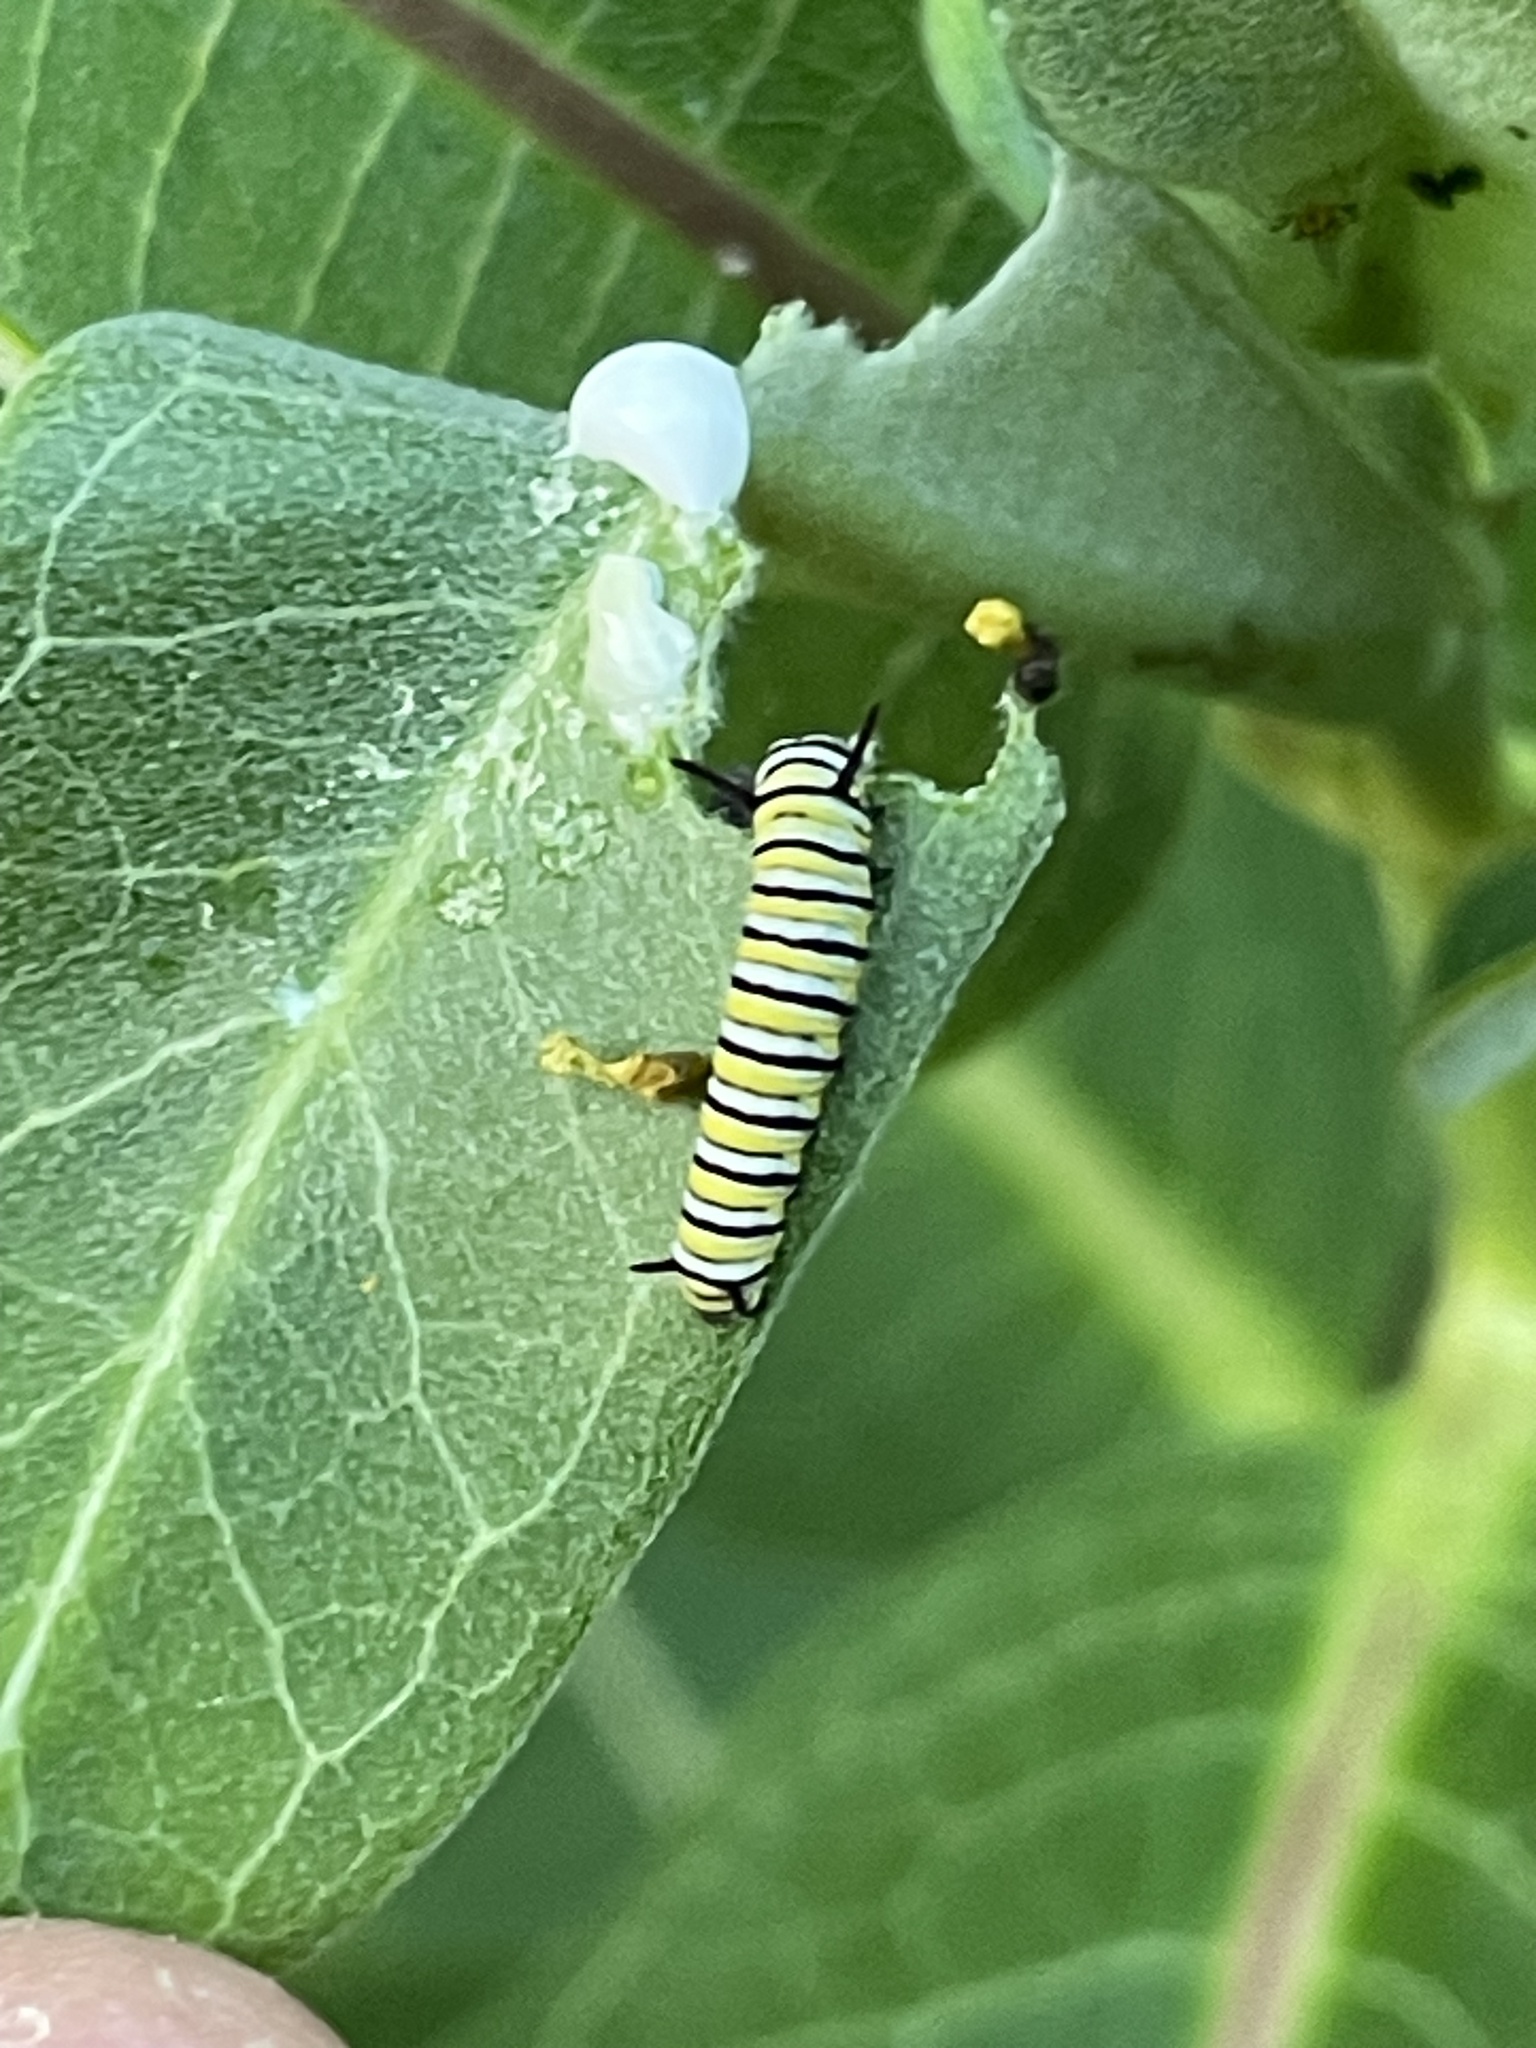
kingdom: Animalia
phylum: Arthropoda
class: Insecta
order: Lepidoptera
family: Nymphalidae
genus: Danaus
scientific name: Danaus plexippus
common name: Monarch
